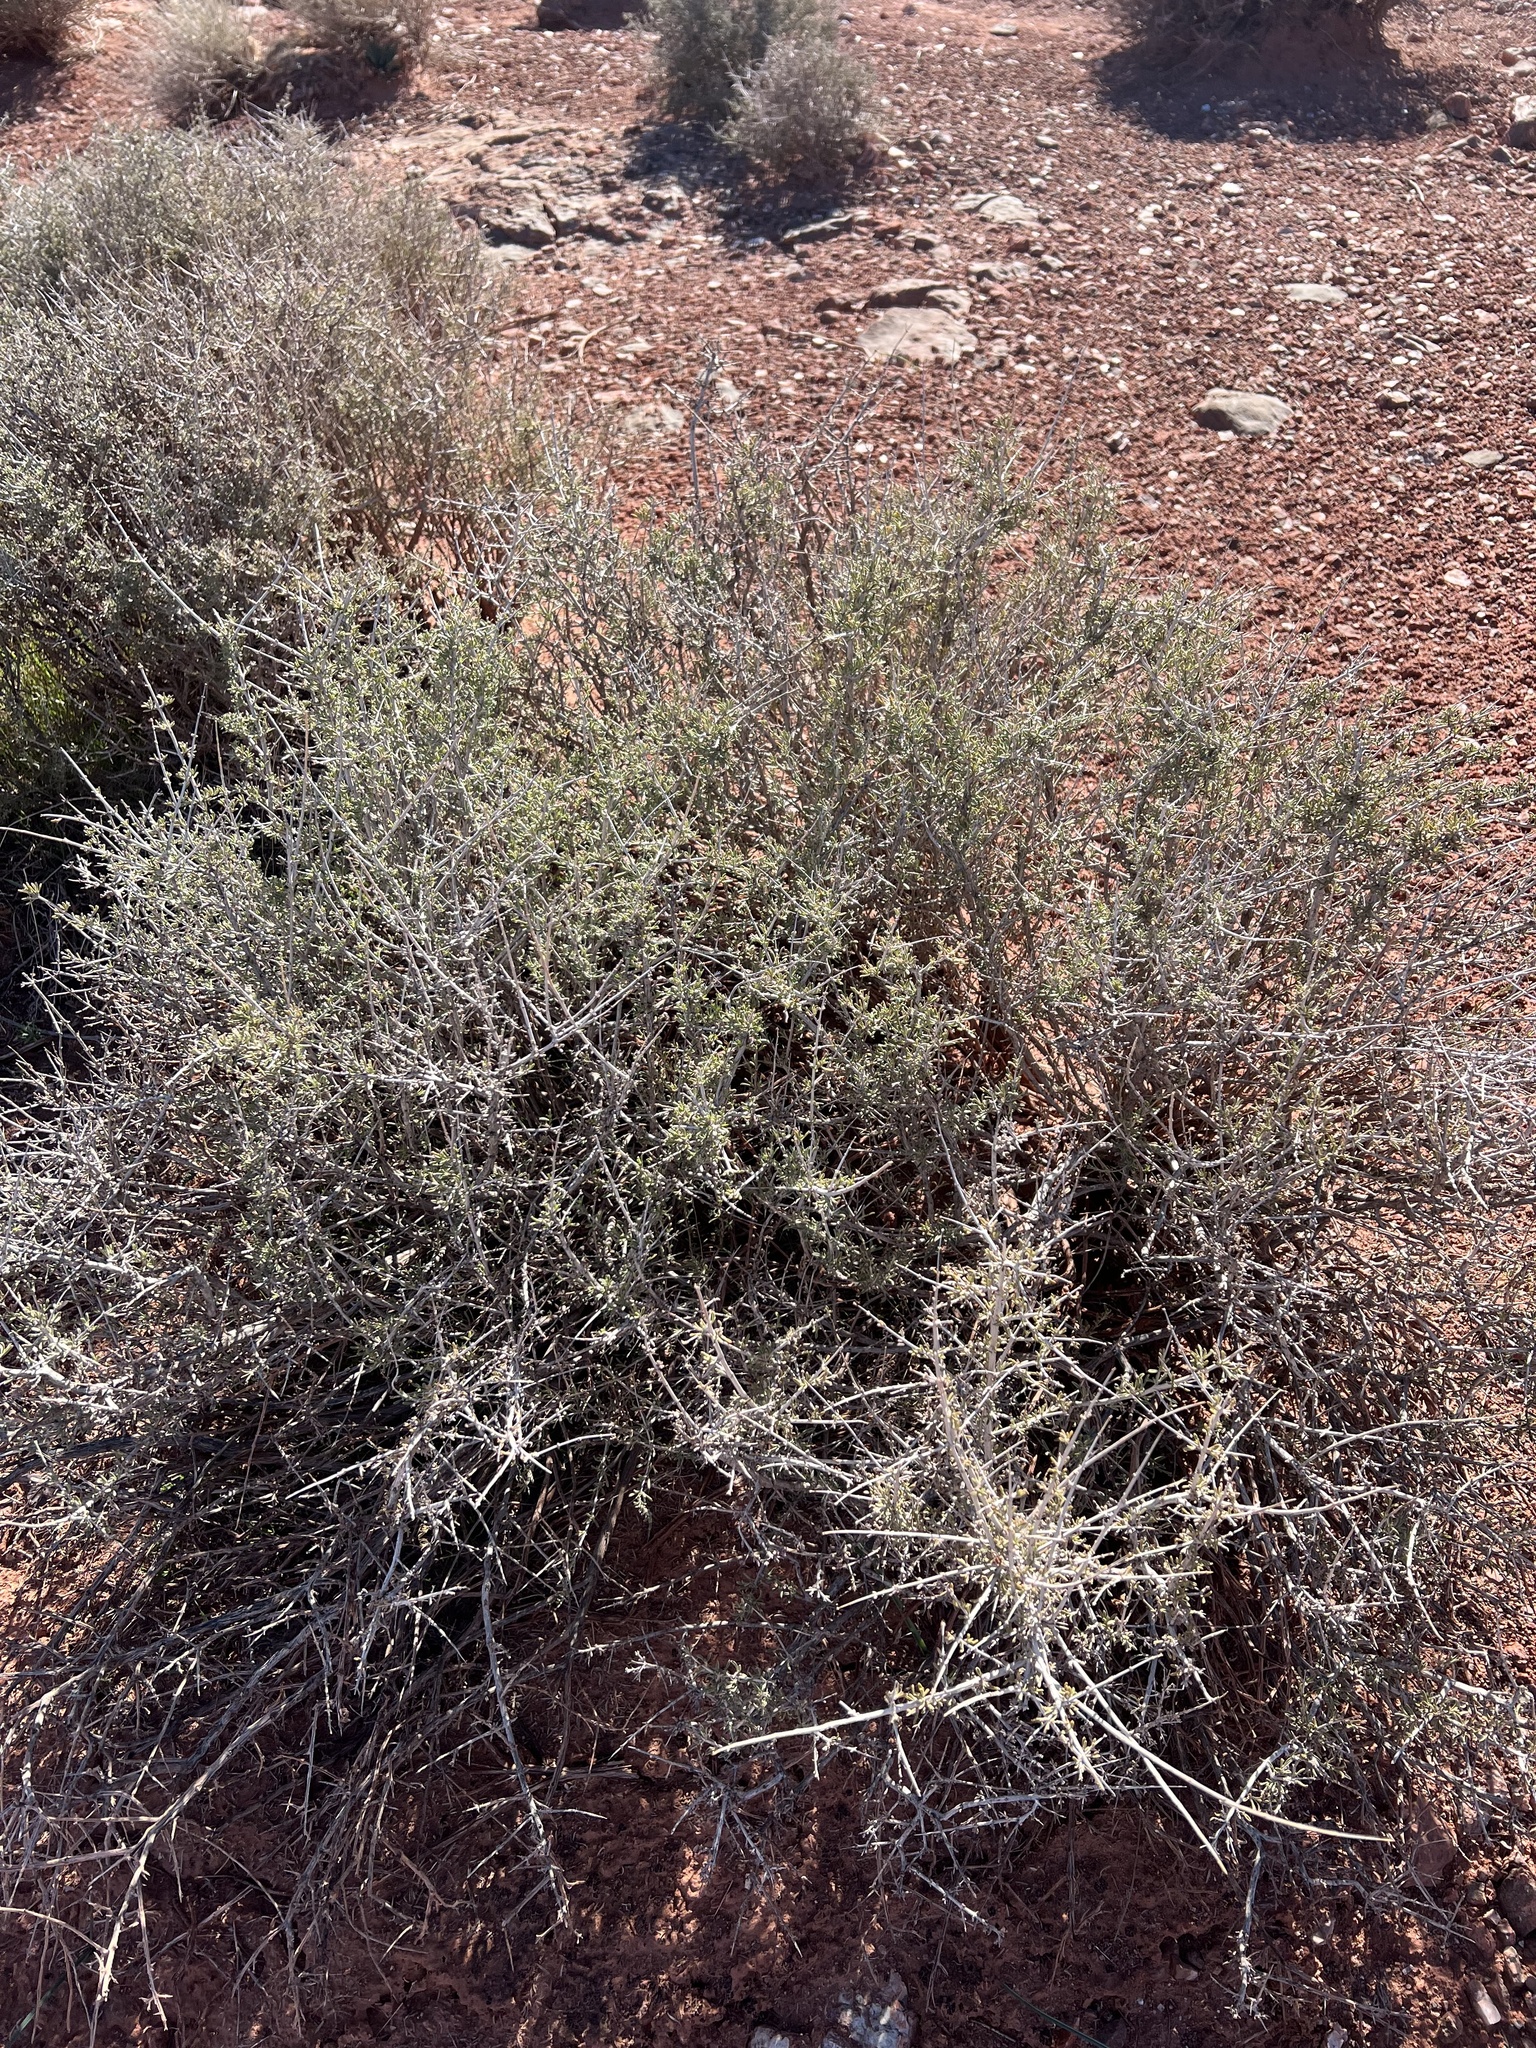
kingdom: Plantae
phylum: Tracheophyta
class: Magnoliopsida
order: Rosales
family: Rosaceae
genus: Coleogyne
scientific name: Coleogyne ramosissima
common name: Blackbrush
